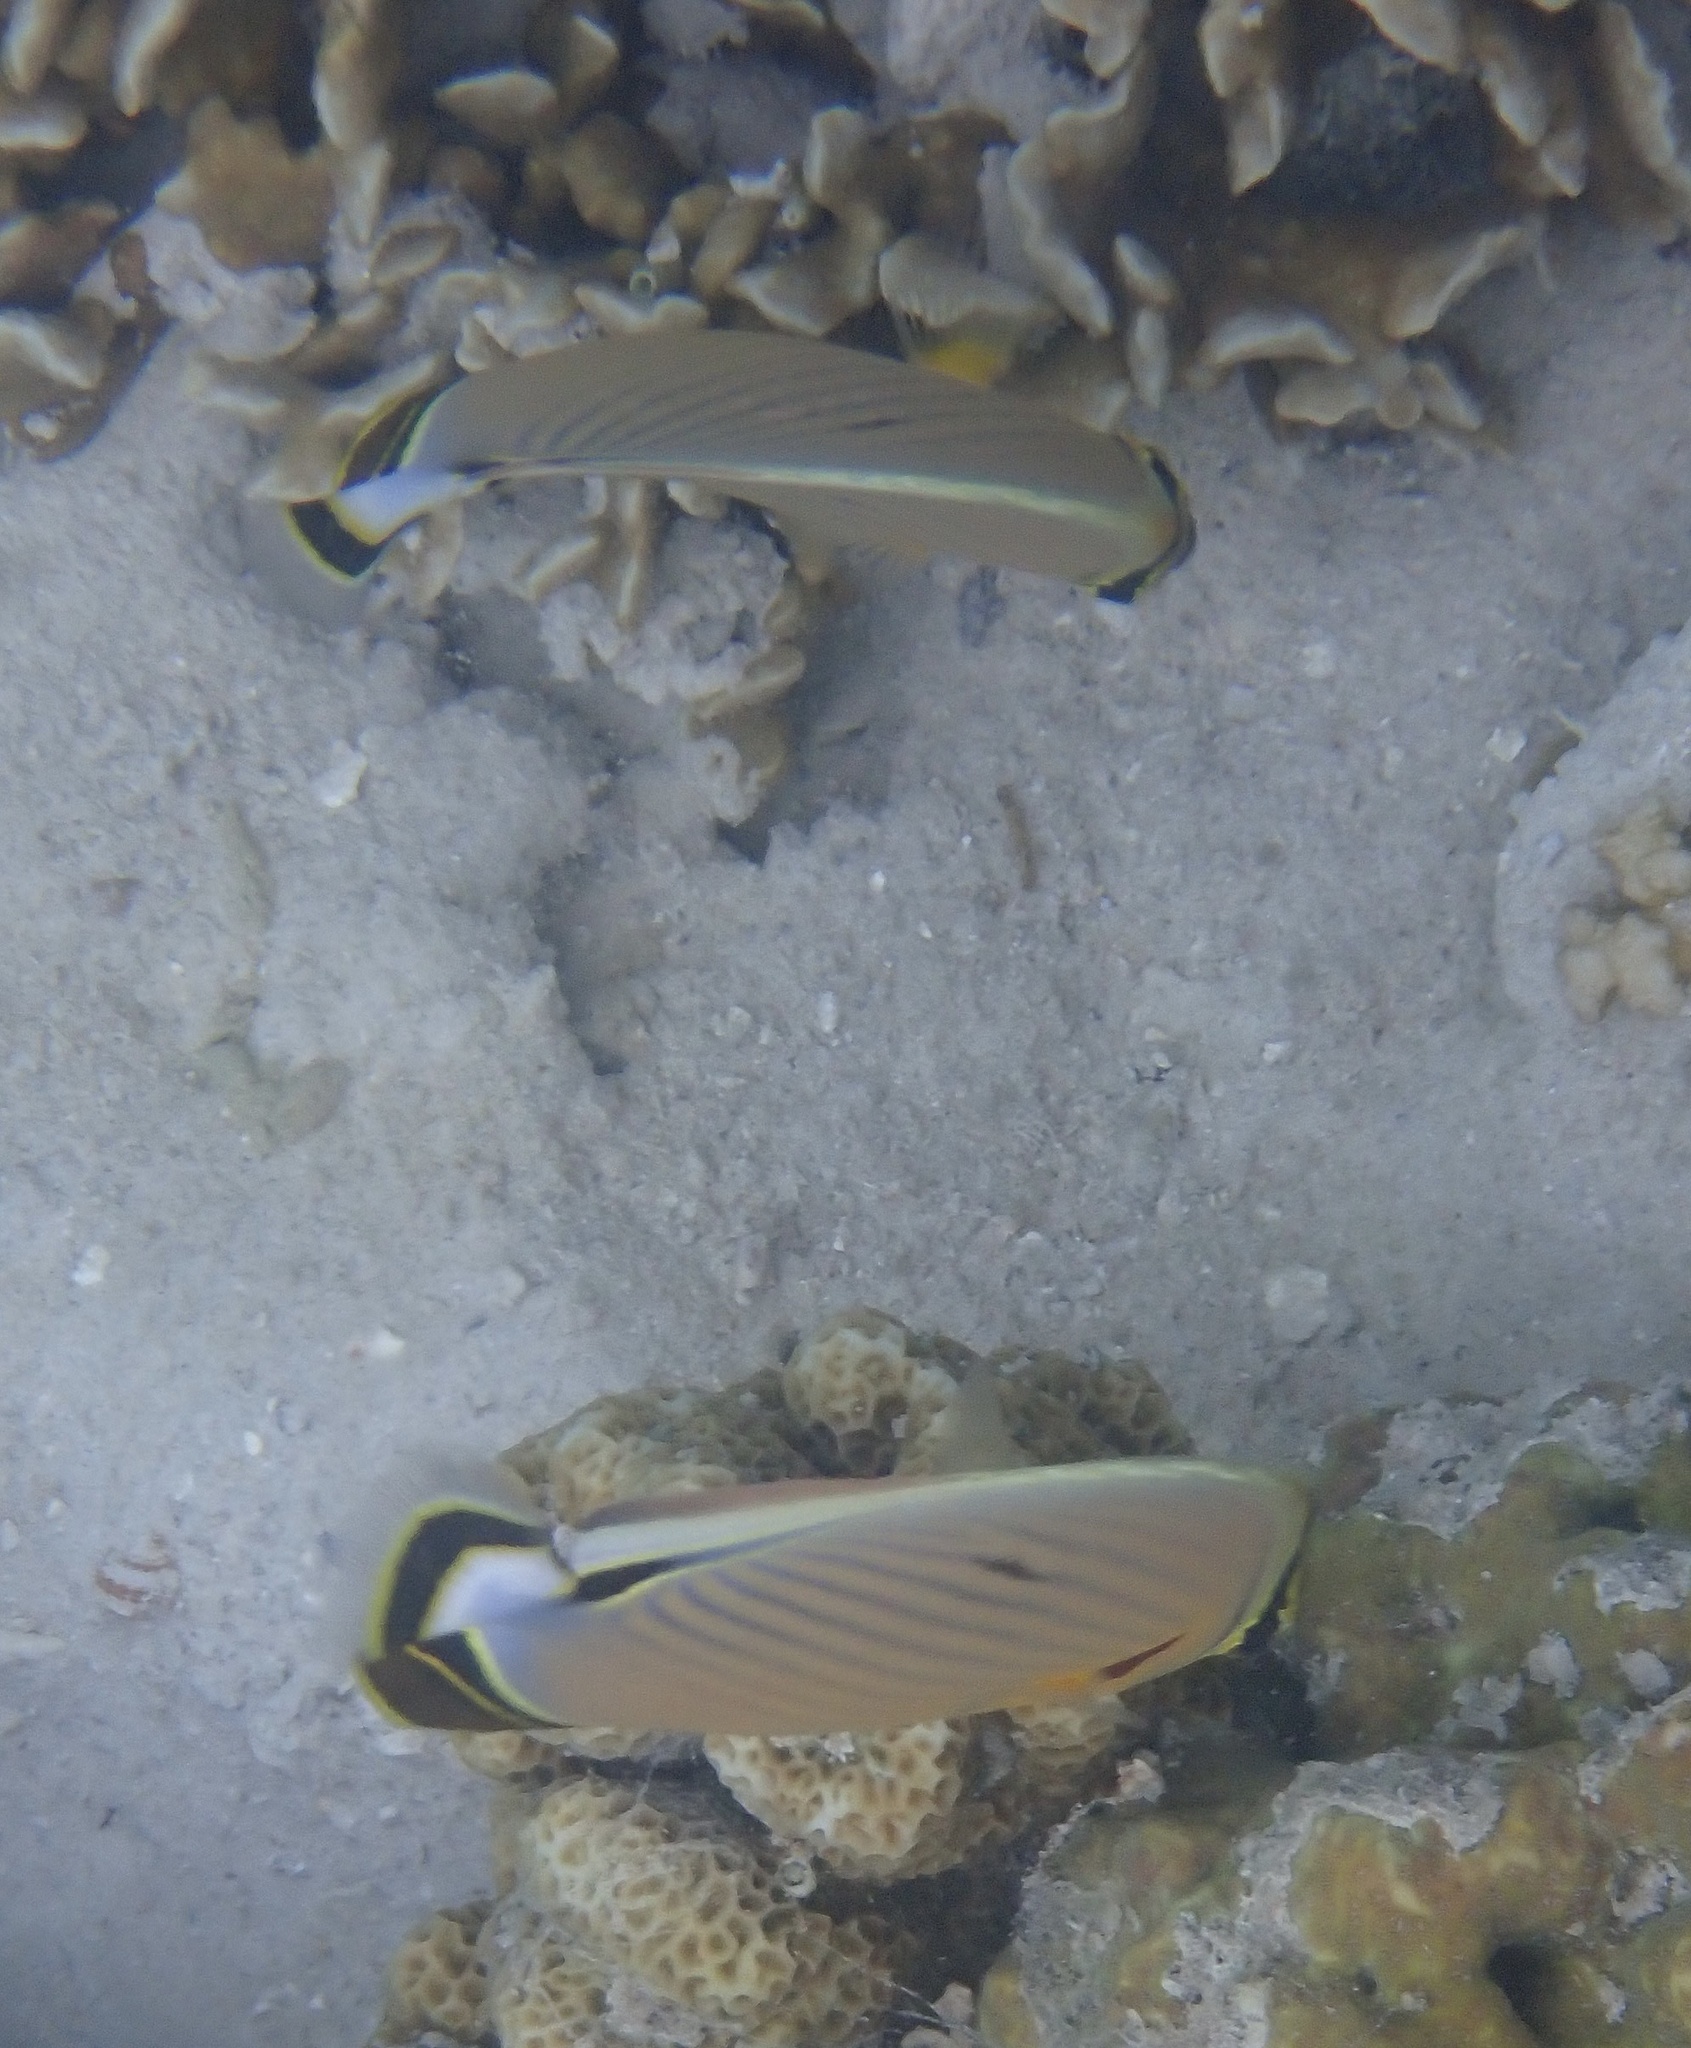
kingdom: Animalia
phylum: Chordata
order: Perciformes
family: Chaetodontidae
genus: Chaetodon
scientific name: Chaetodon lunulatus
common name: Redfin butterflyfish
